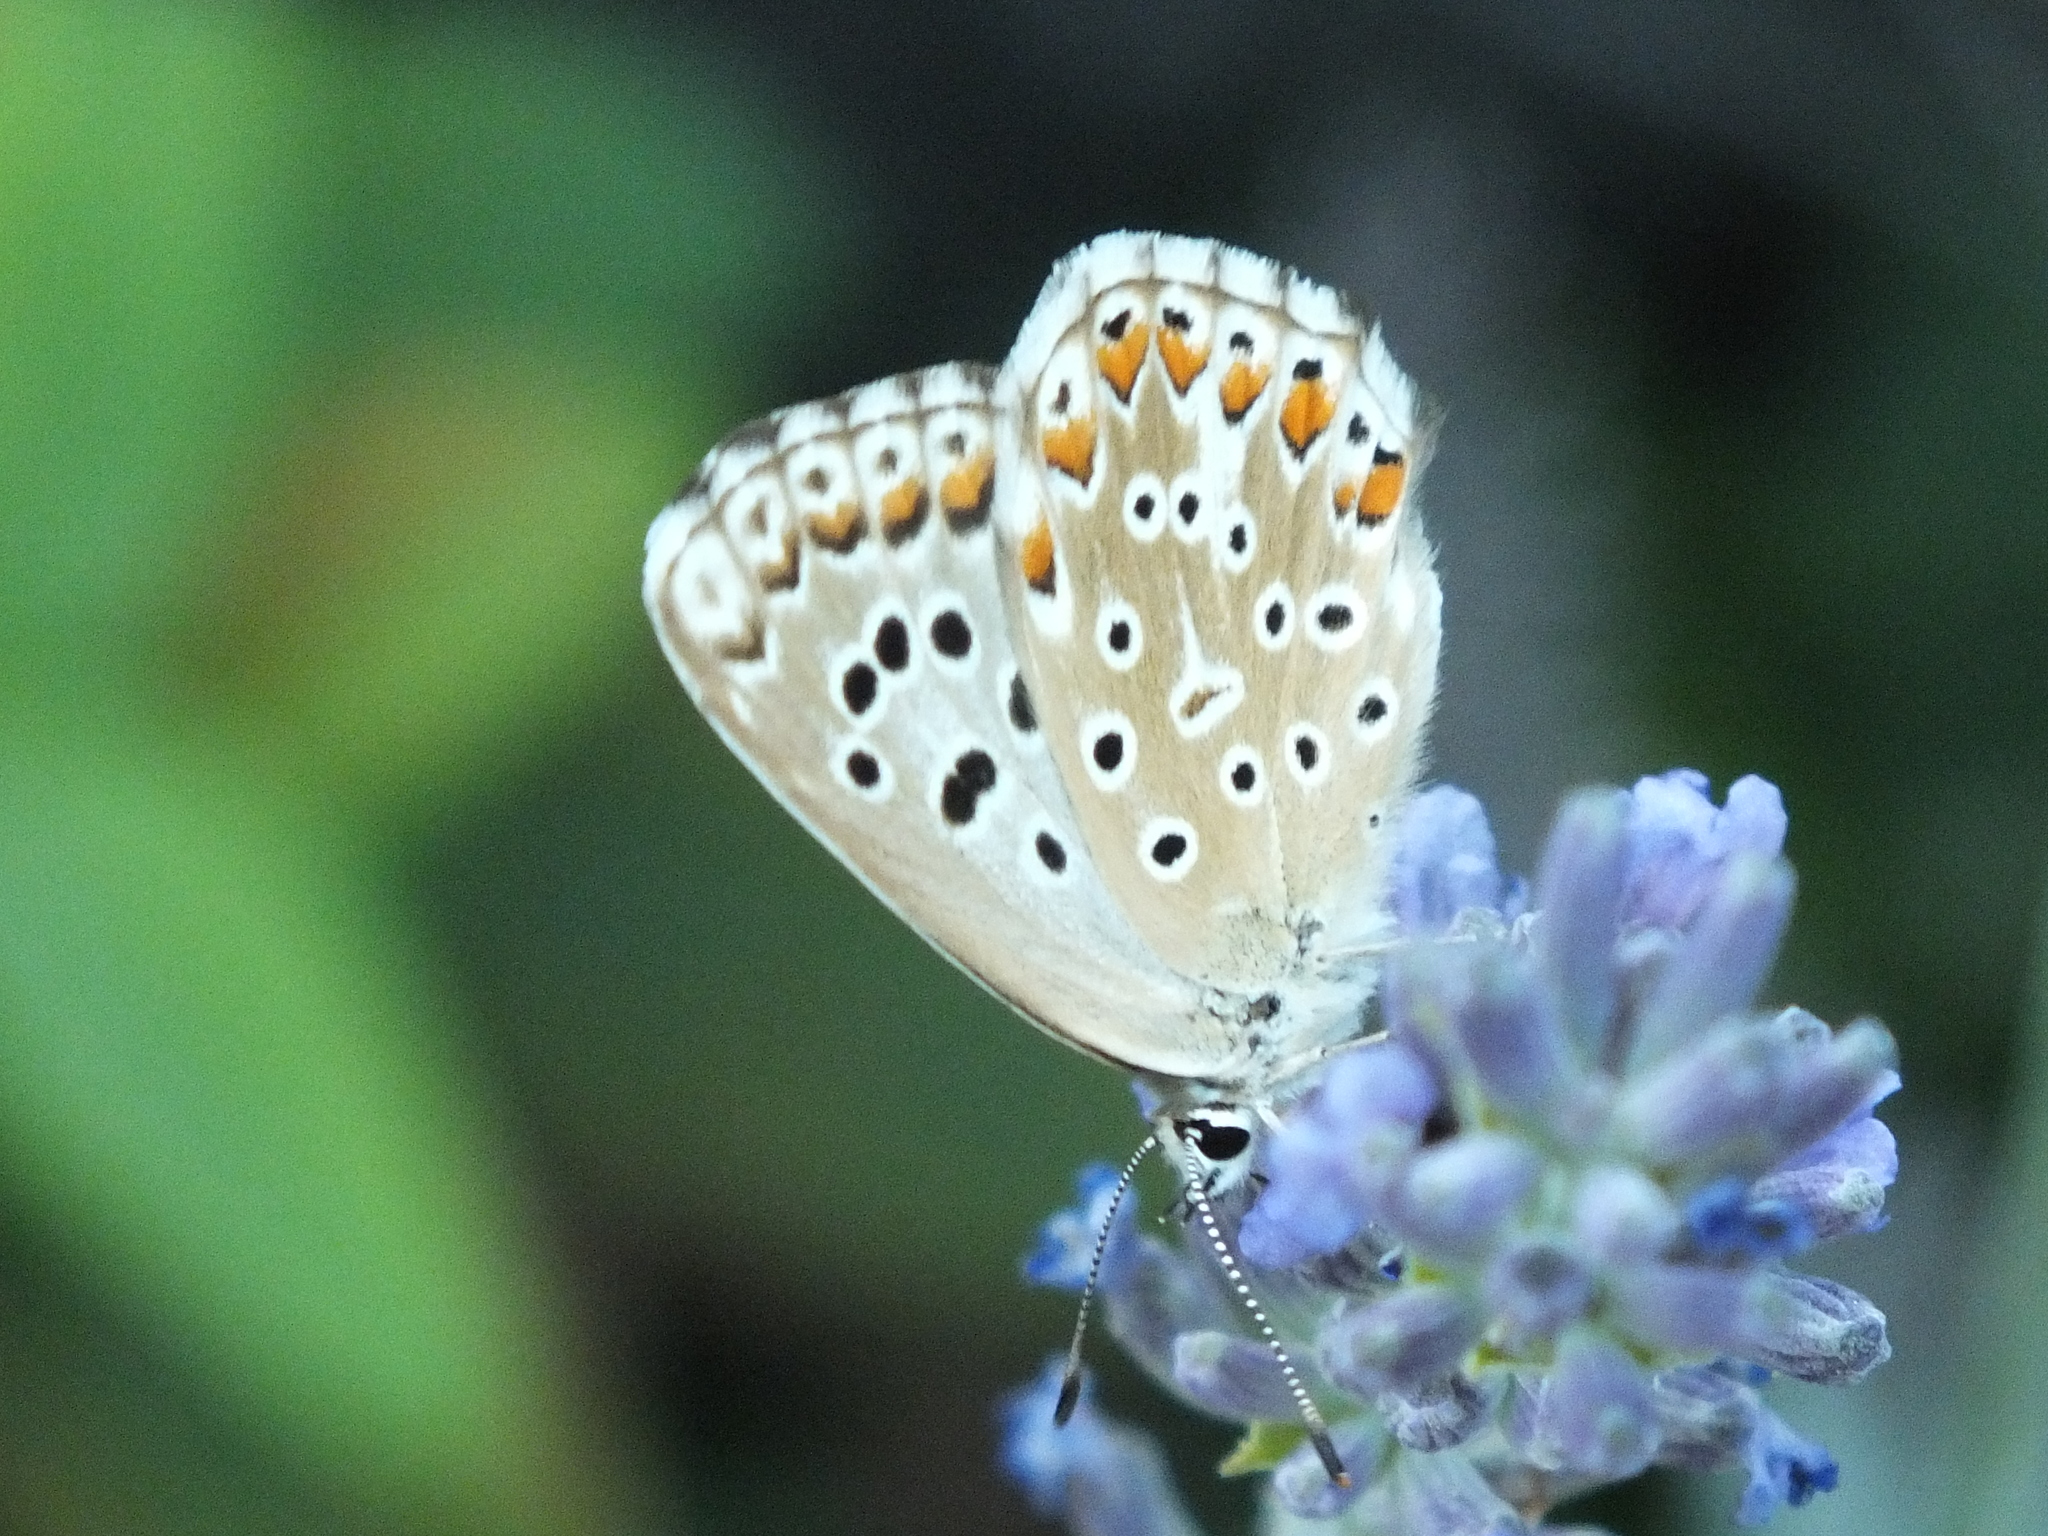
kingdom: Animalia
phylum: Arthropoda
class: Insecta
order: Lepidoptera
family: Lycaenidae
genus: Lysandra
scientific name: Lysandra bellargus
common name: Adonis blue
